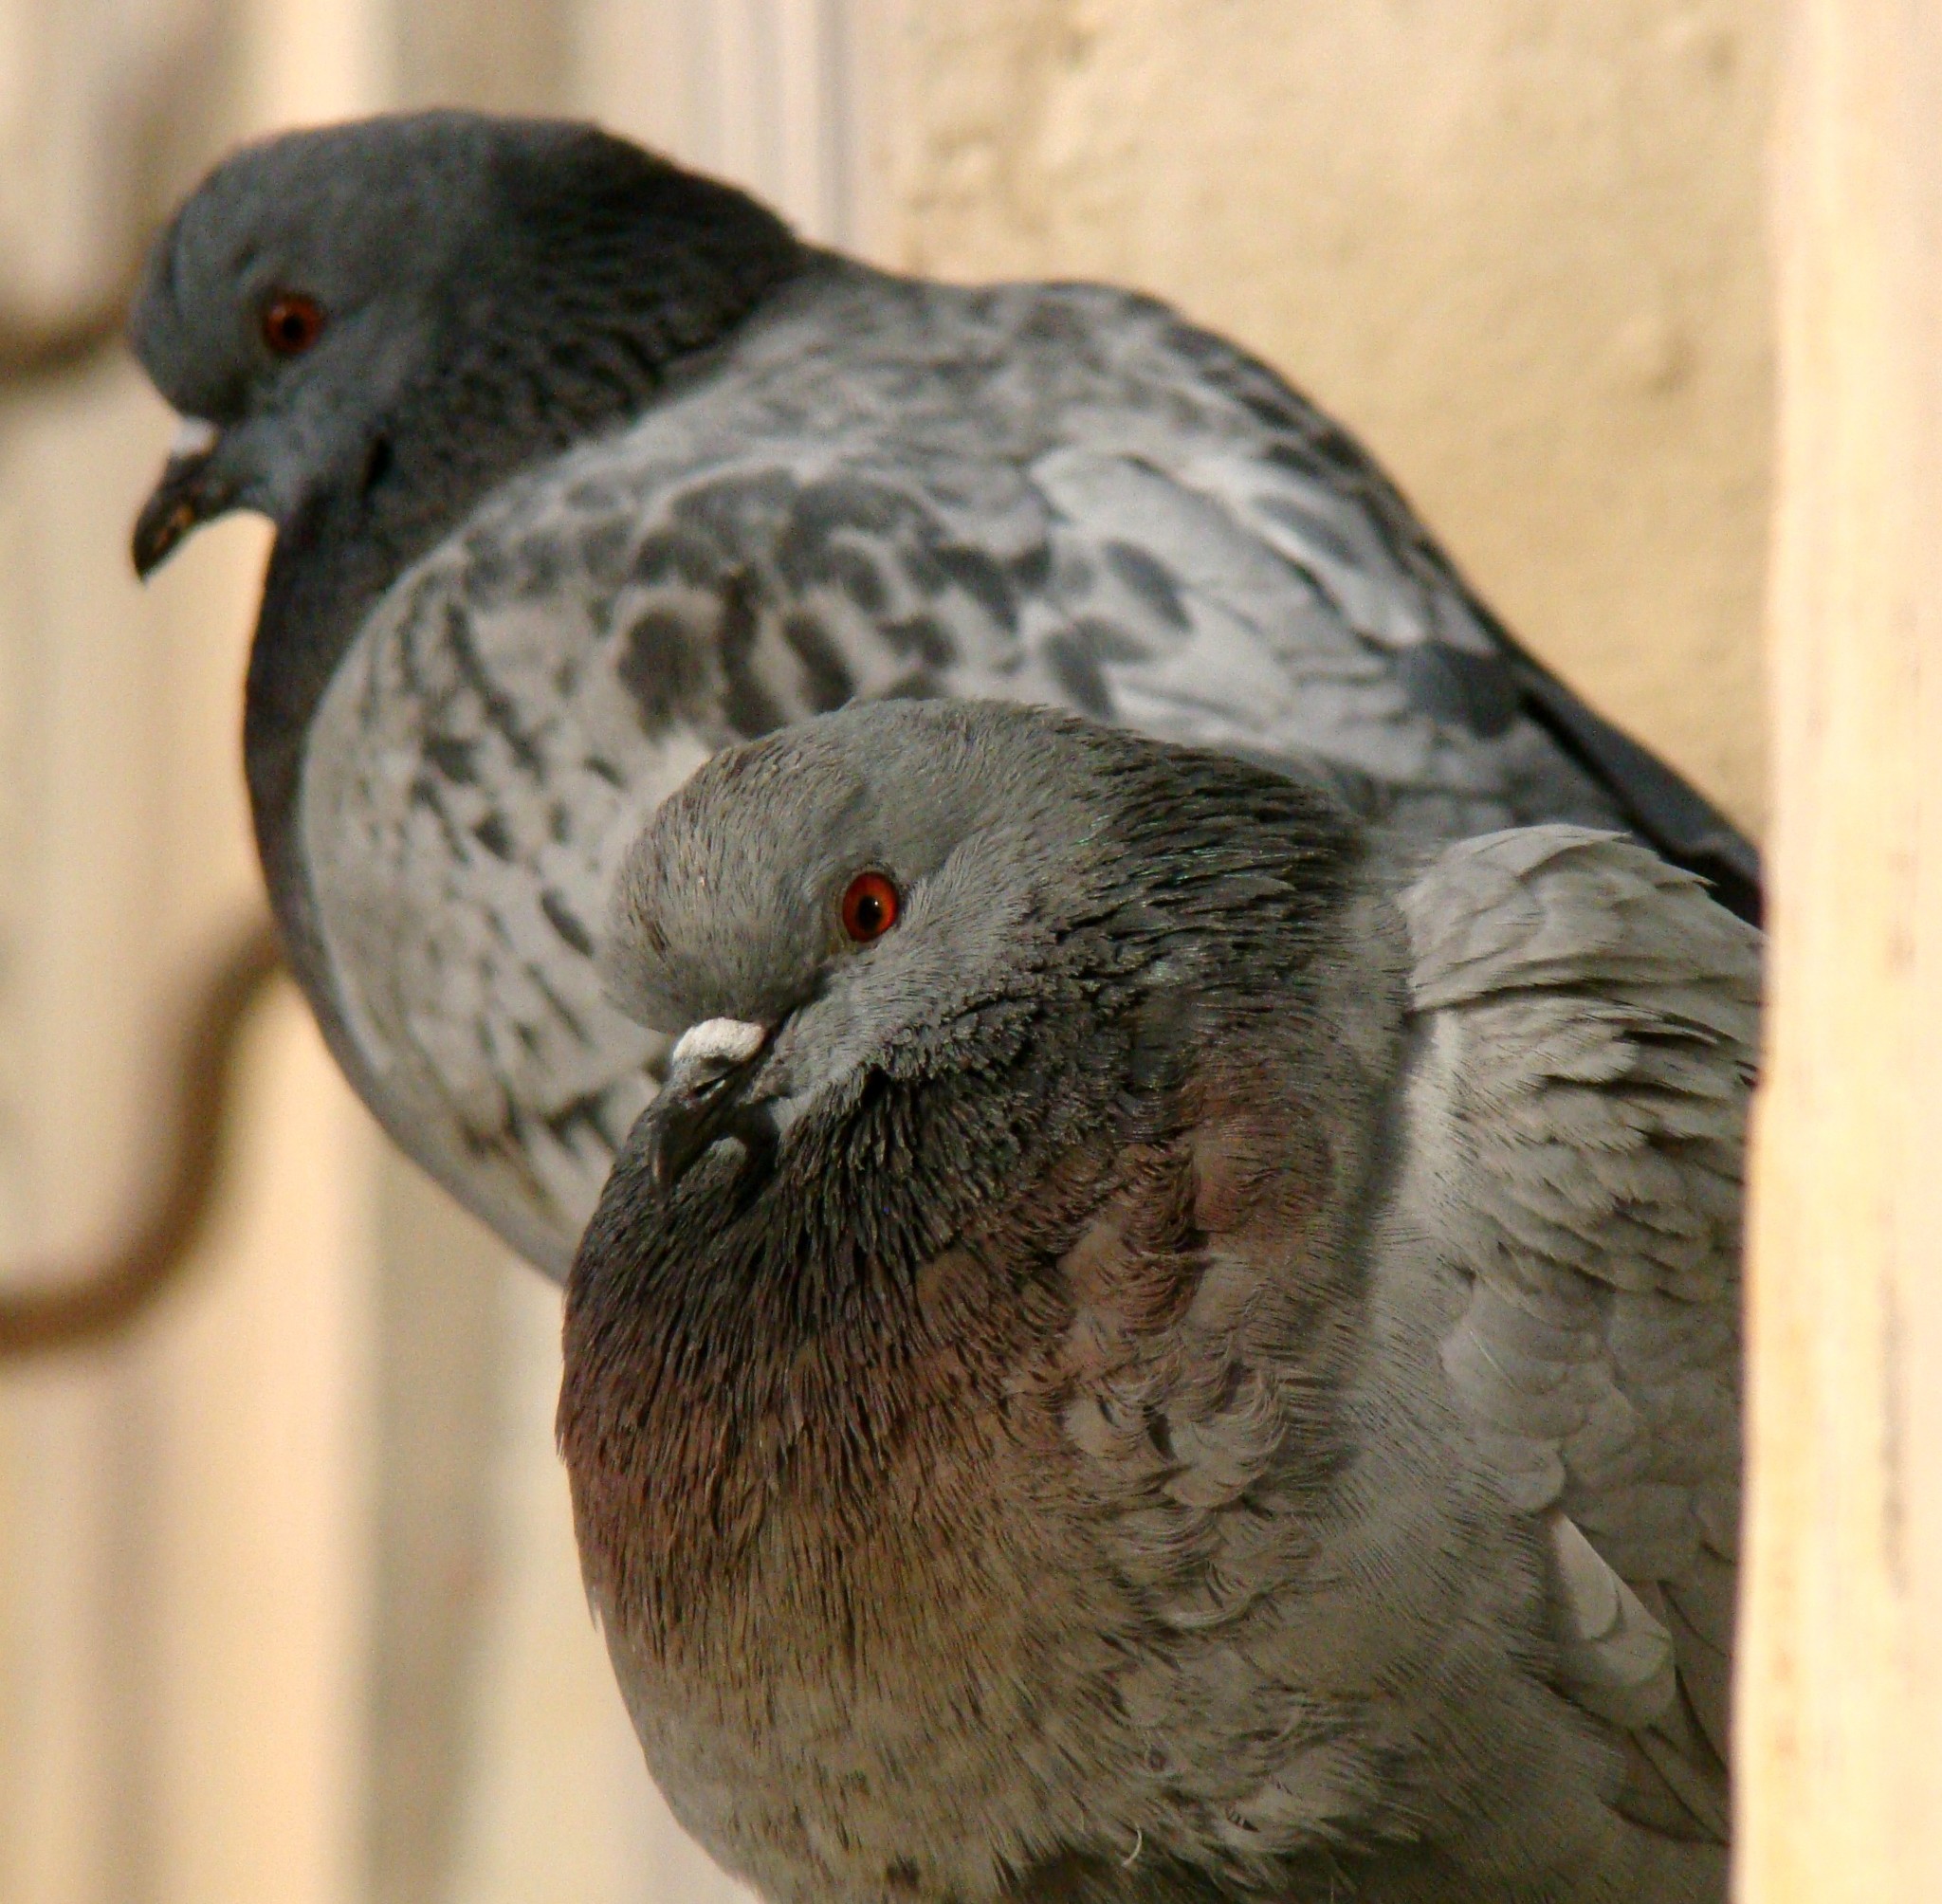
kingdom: Animalia
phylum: Chordata
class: Aves
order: Columbiformes
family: Columbidae
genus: Columba
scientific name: Columba livia
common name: Rock pigeon
